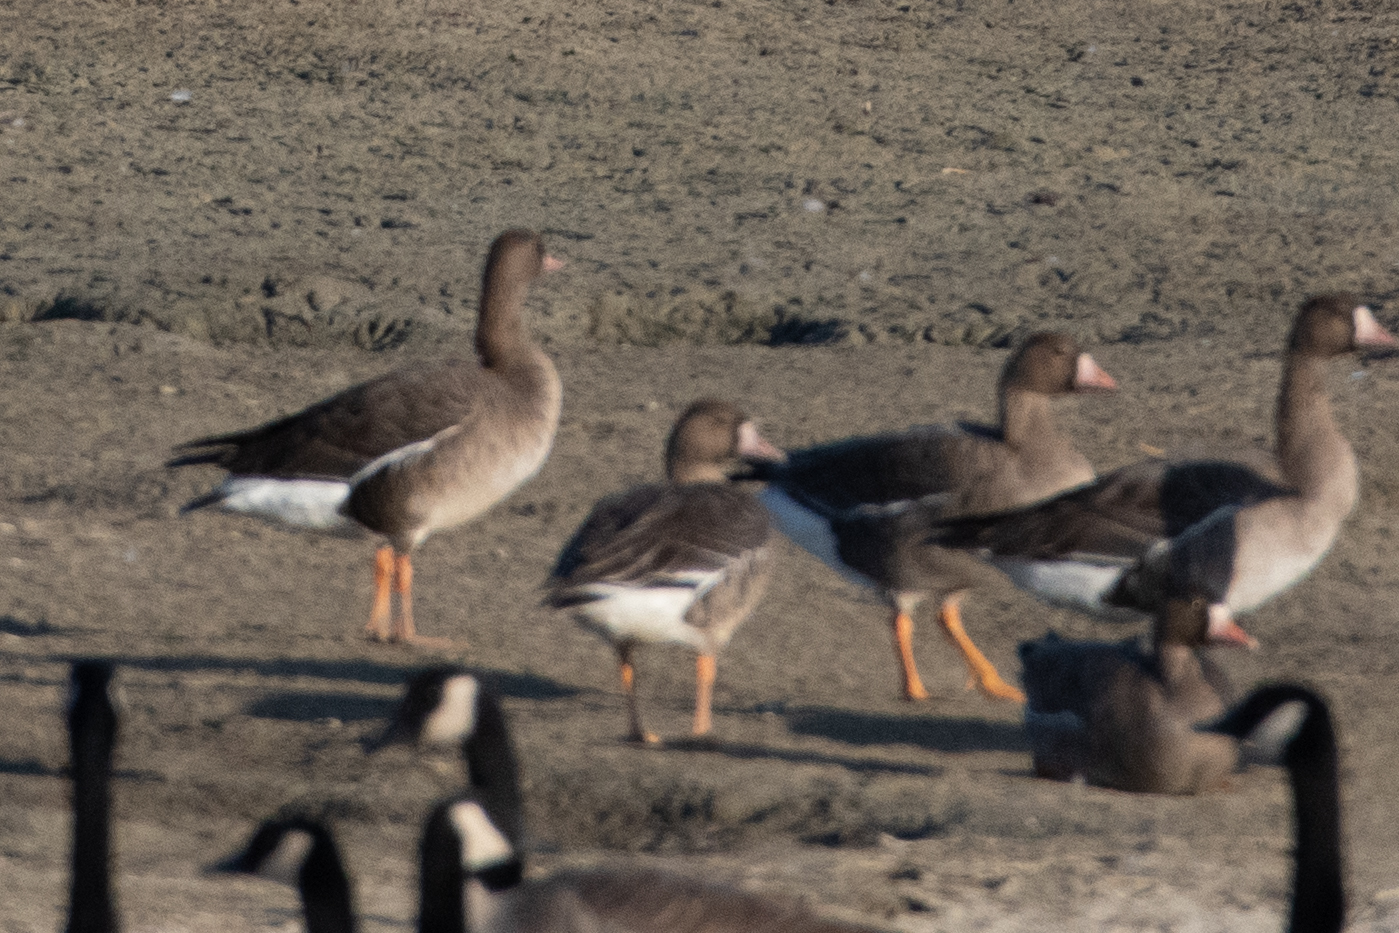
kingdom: Animalia
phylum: Chordata
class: Aves
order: Anseriformes
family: Anatidae
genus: Anser
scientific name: Anser albifrons
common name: Greater white-fronted goose
